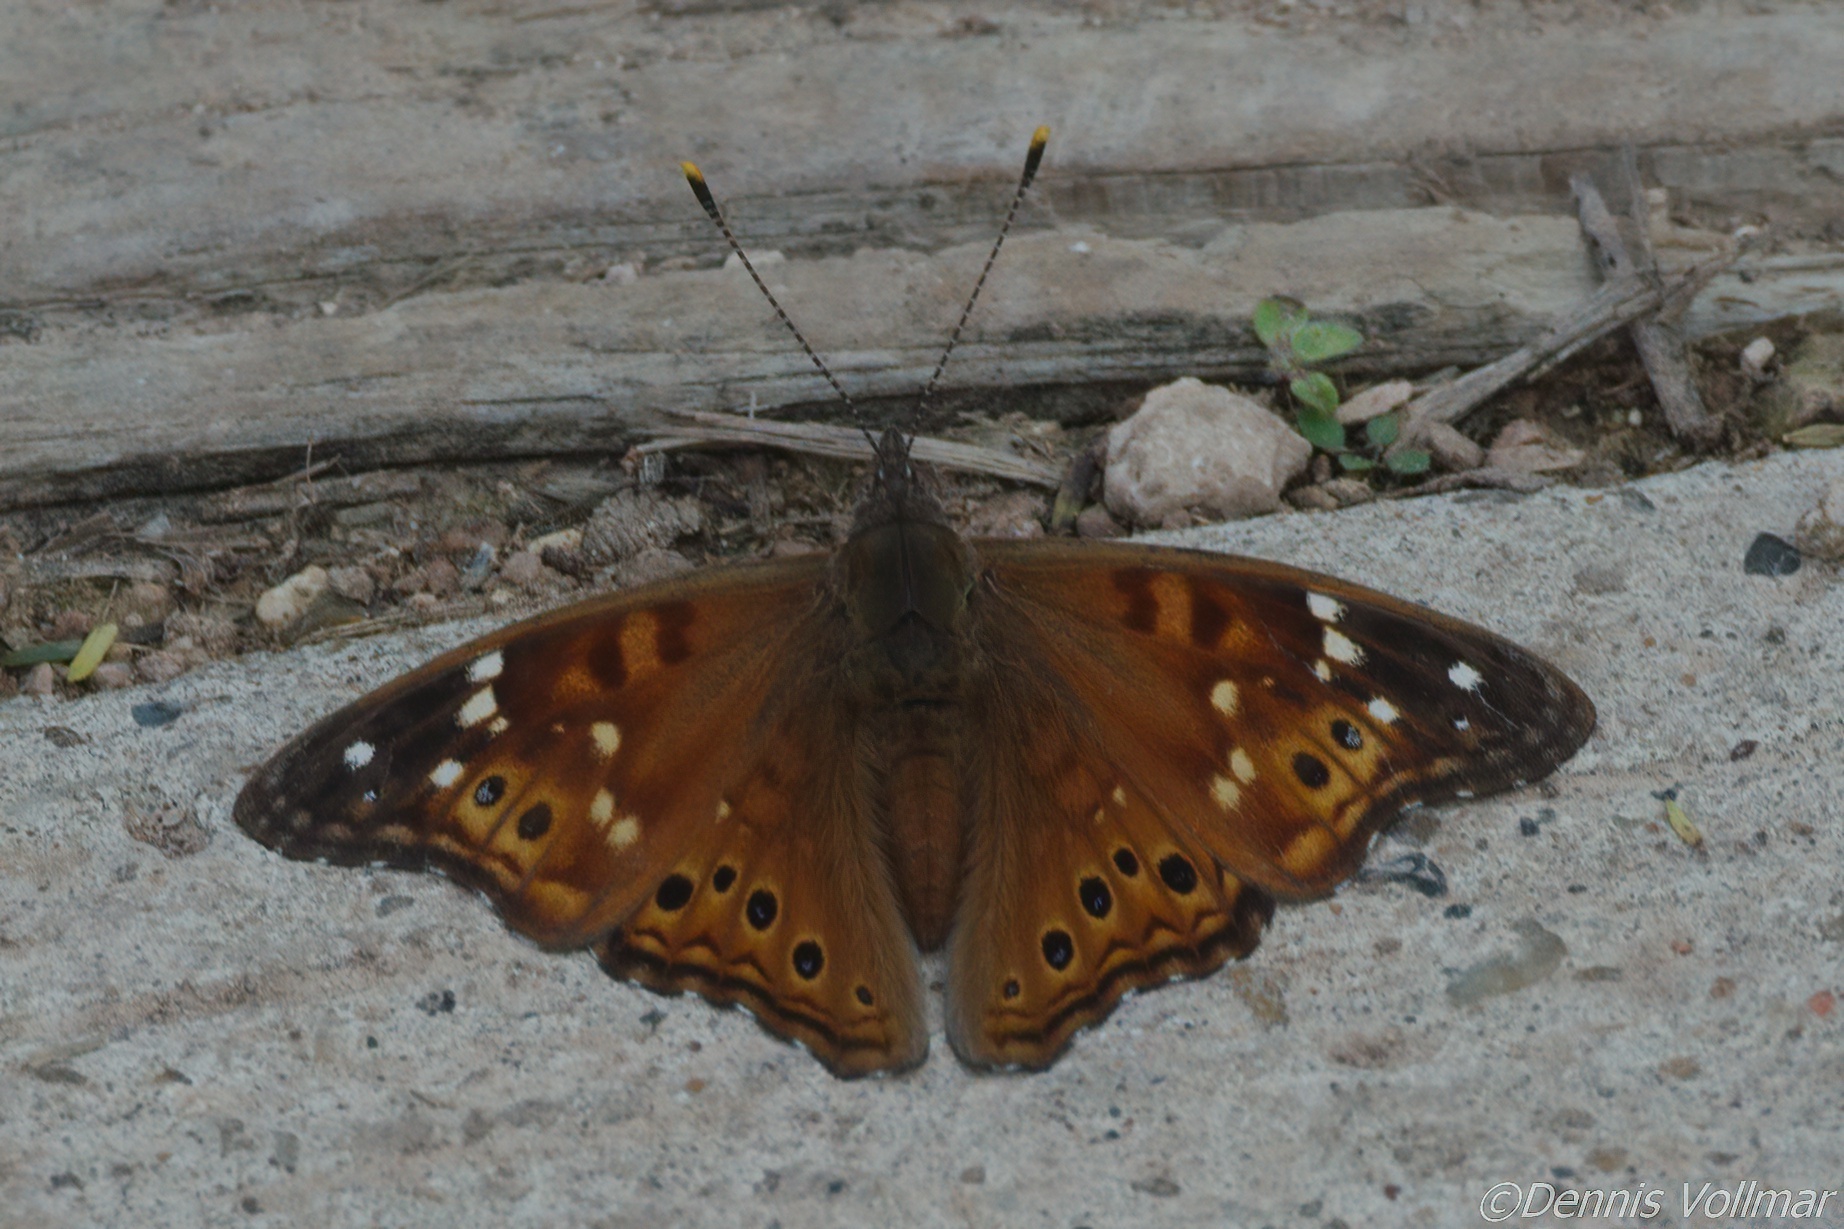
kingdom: Animalia
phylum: Arthropoda
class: Insecta
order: Lepidoptera
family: Nymphalidae
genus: Asterocampa
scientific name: Asterocampa leilia
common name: Empress leilia
